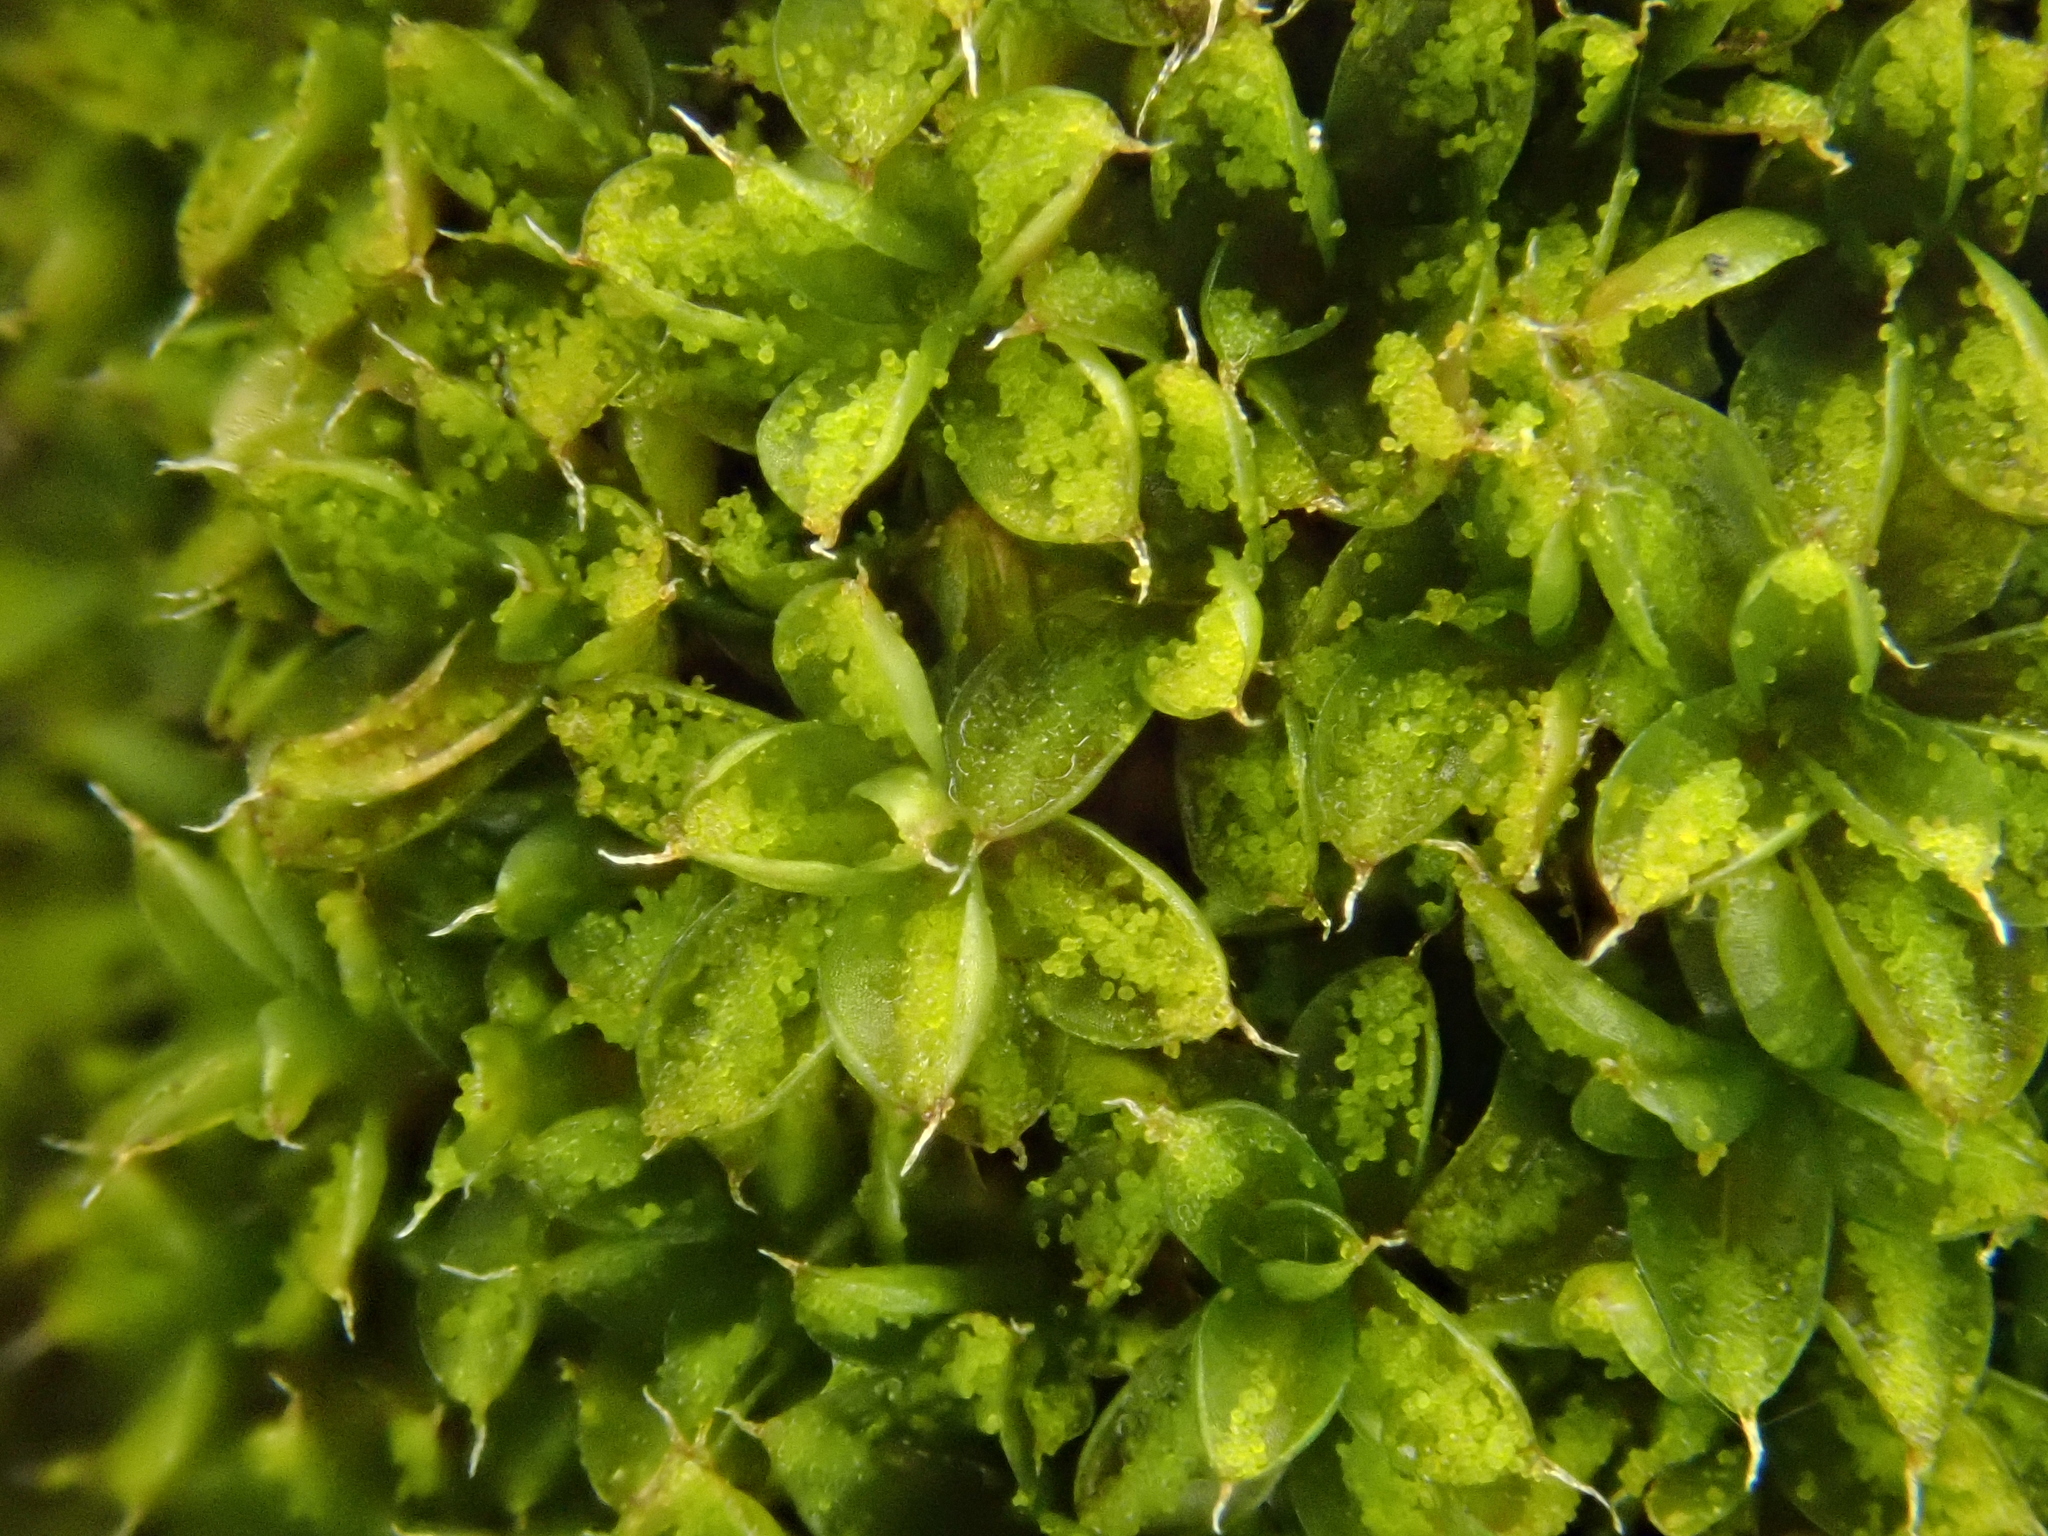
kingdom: Plantae
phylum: Bryophyta
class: Bryopsida
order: Pottiales
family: Pottiaceae
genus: Syntrichia
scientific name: Syntrichia papillosa
